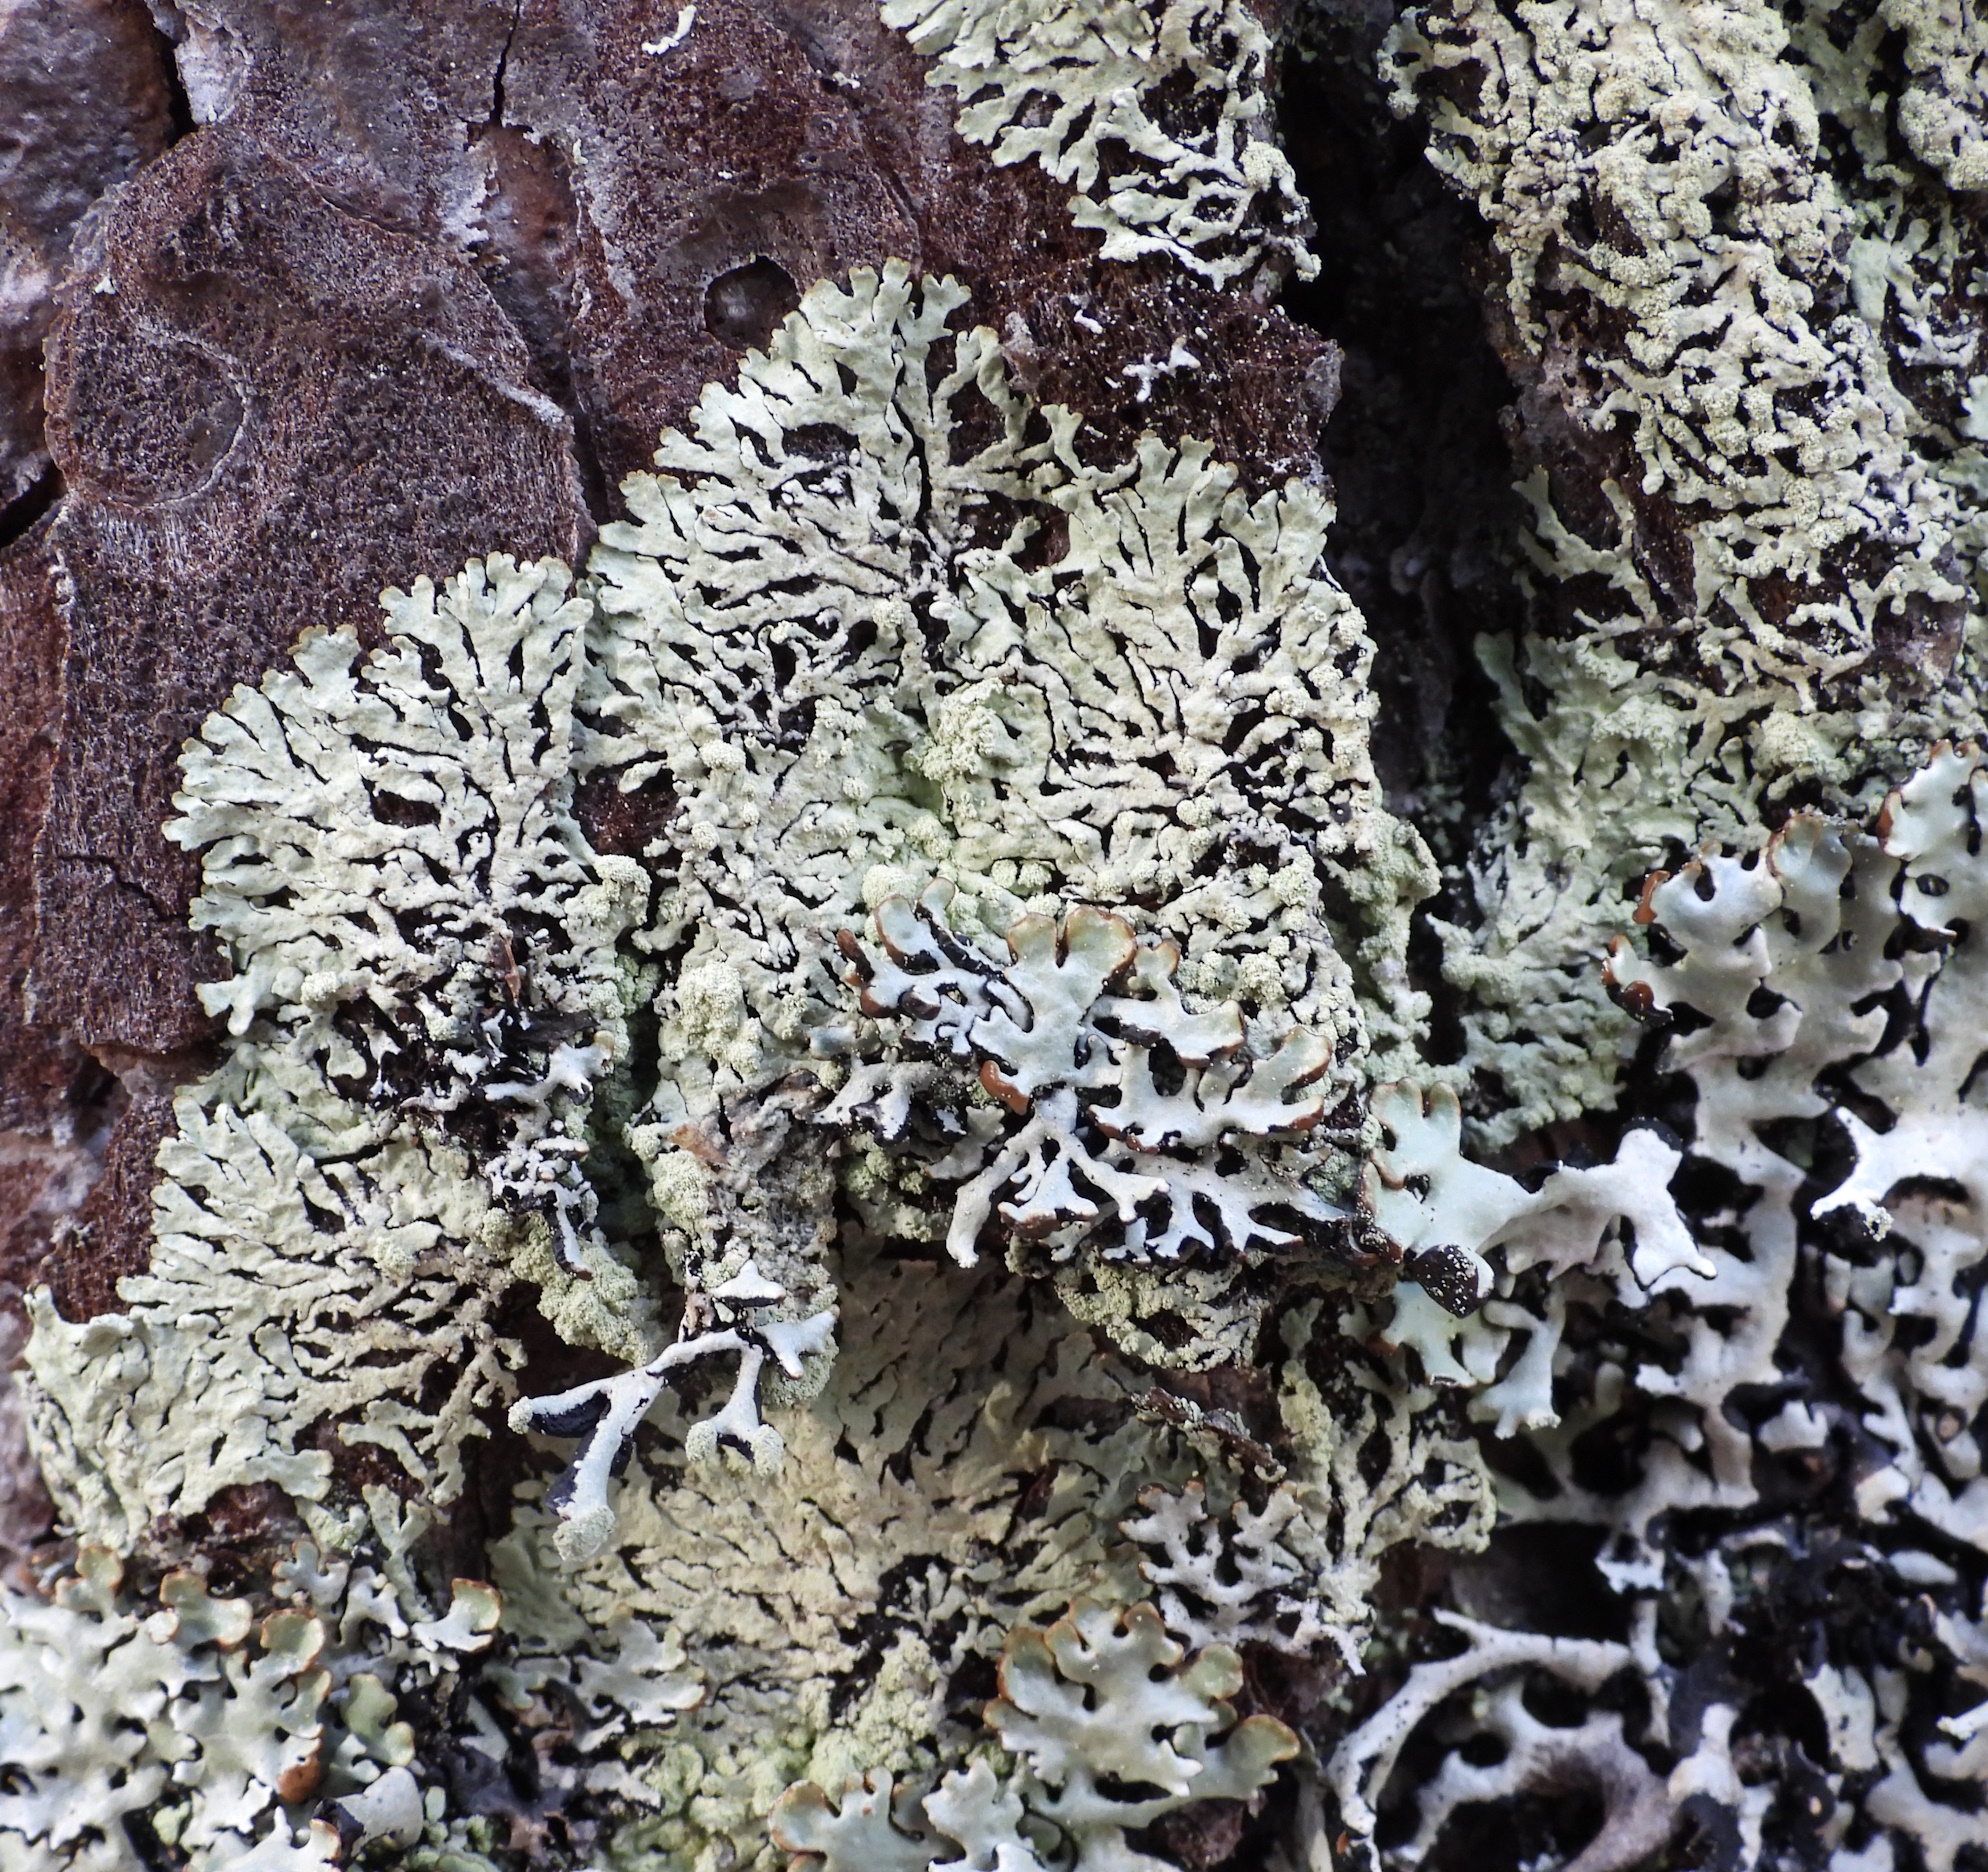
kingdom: Fungi
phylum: Ascomycota
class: Lecanoromycetes
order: Lecanorales
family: Parmeliaceae
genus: Parmeliopsis
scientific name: Parmeliopsis ambigua
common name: Green starburst lichen
